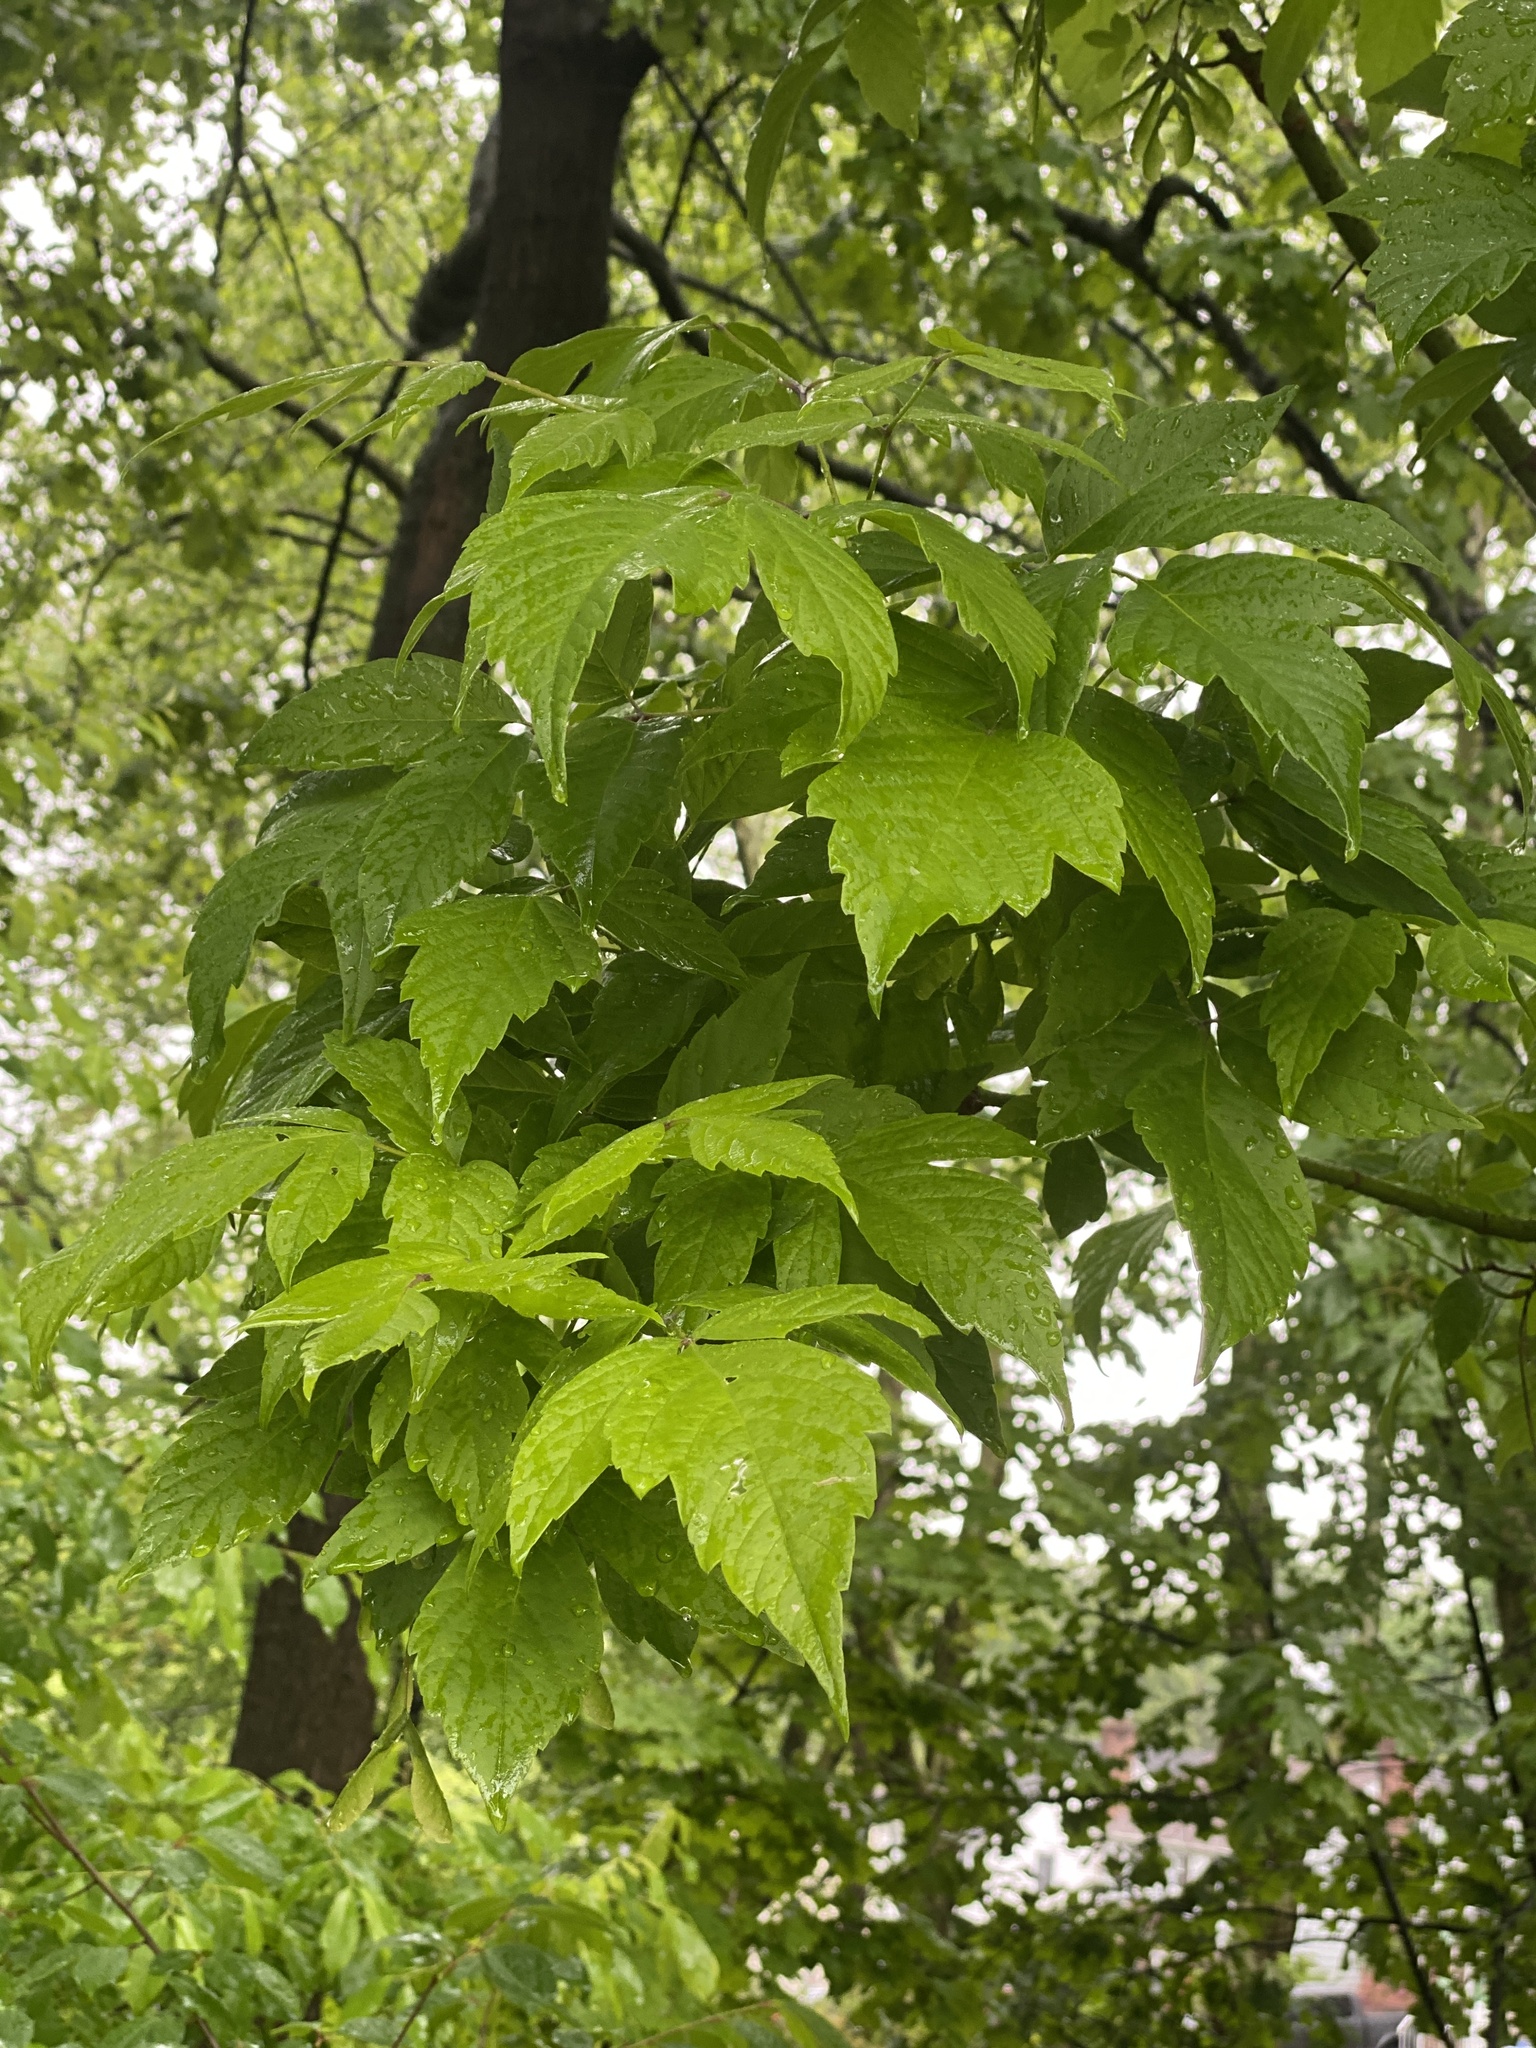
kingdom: Plantae
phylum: Tracheophyta
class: Magnoliopsida
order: Sapindales
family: Sapindaceae
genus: Acer
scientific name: Acer negundo
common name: Ashleaf maple
